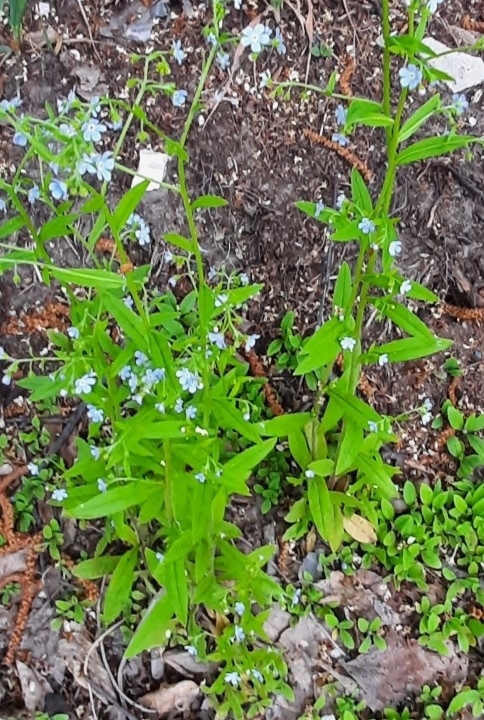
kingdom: Plantae
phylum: Tracheophyta
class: Magnoliopsida
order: Boraginales
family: Boraginaceae
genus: Hackelia
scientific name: Hackelia deflexa
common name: Nodding stickseed
